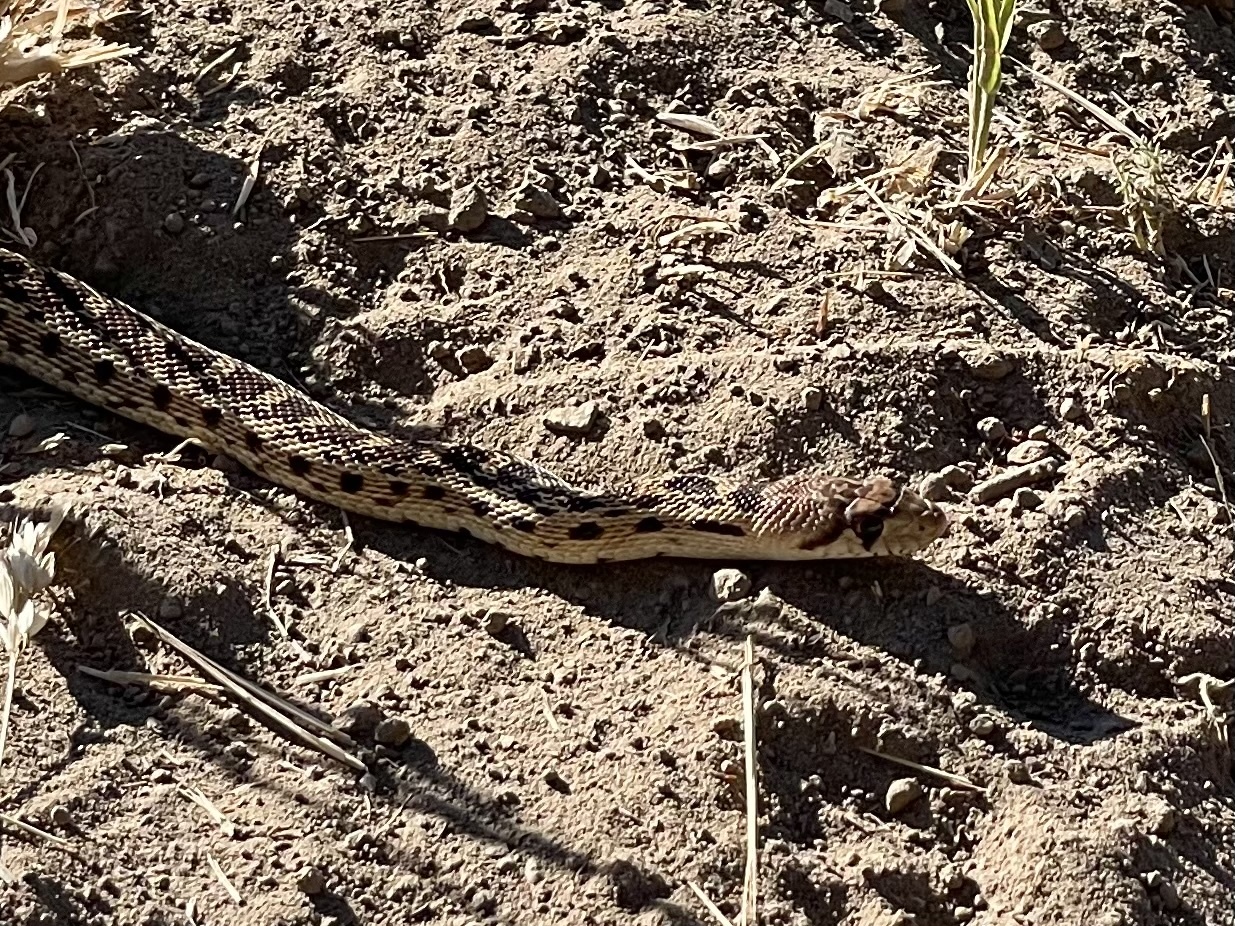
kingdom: Animalia
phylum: Chordata
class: Squamata
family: Colubridae
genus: Pituophis
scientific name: Pituophis catenifer
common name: Gopher snake
